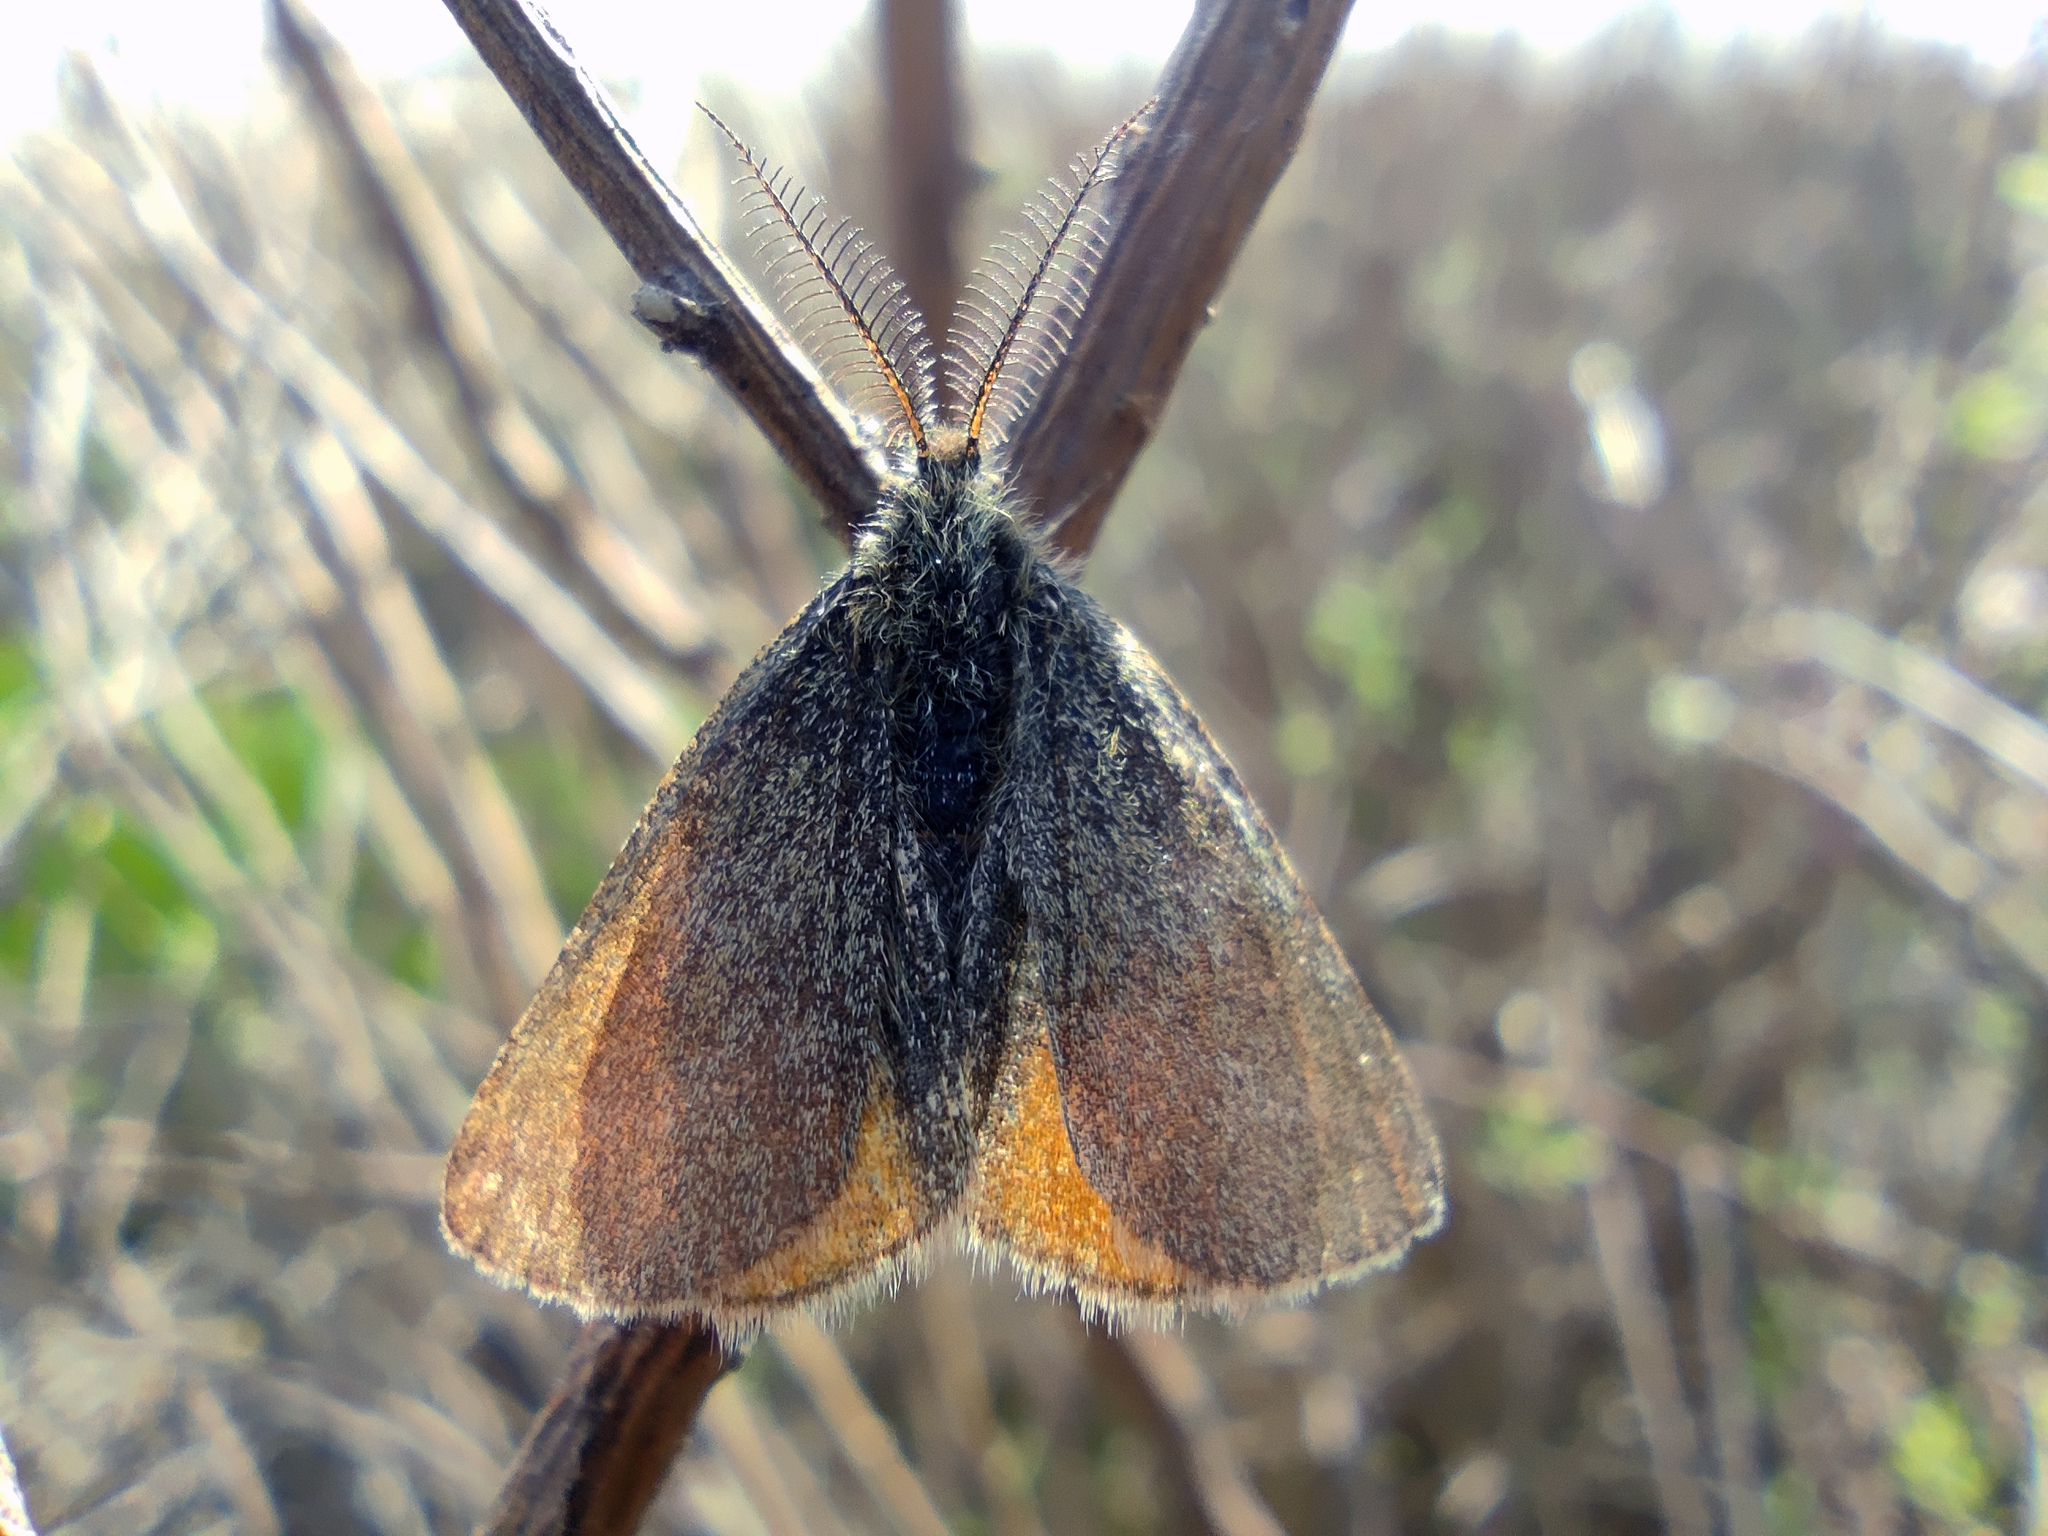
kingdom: Animalia
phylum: Arthropoda
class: Insecta
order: Lepidoptera
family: Geometridae
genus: Lythria
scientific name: Lythria purpuraria
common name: Purple-barred yellow
